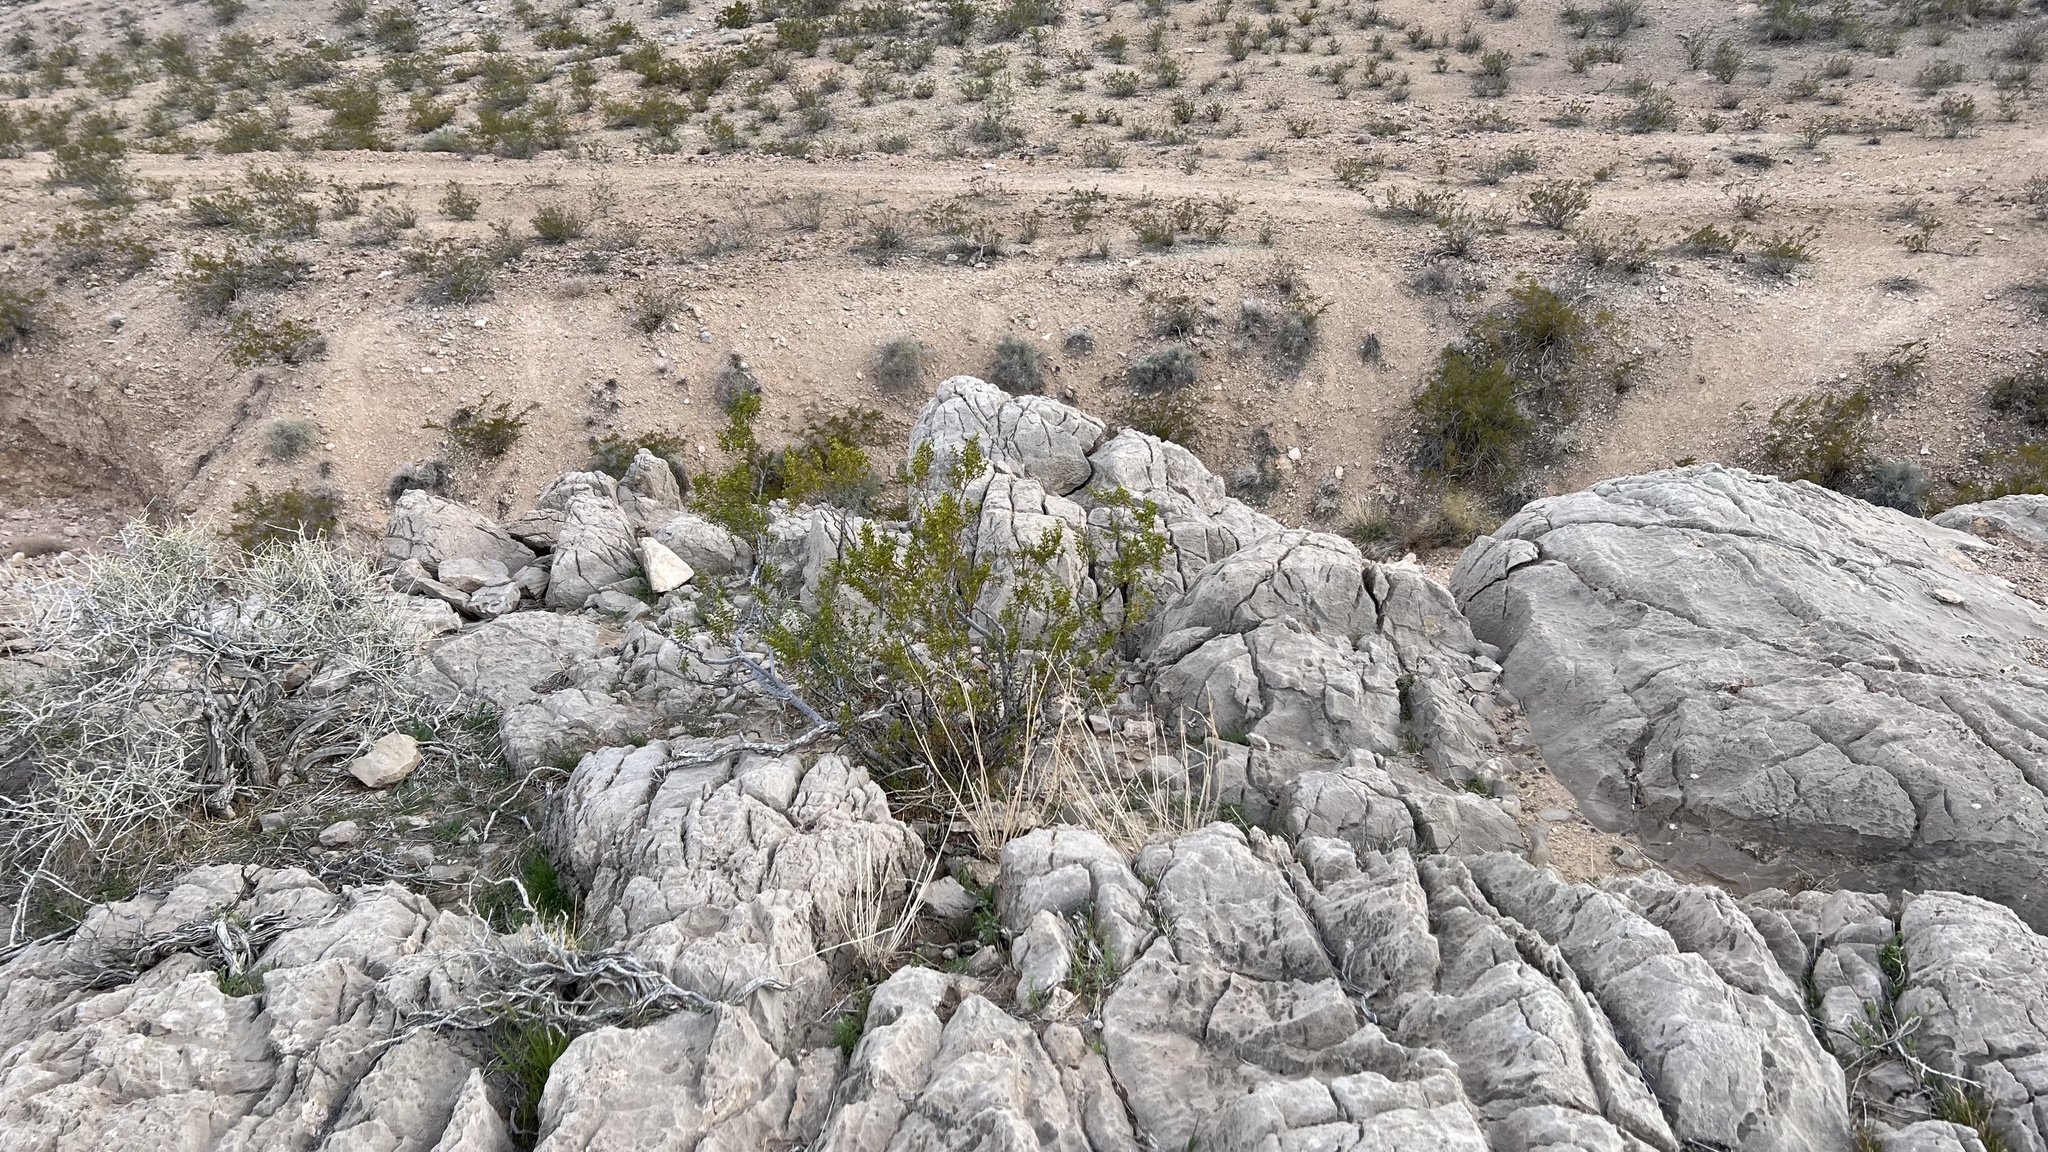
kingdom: Plantae
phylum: Tracheophyta
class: Magnoliopsida
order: Zygophyllales
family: Zygophyllaceae
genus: Larrea
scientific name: Larrea tridentata
